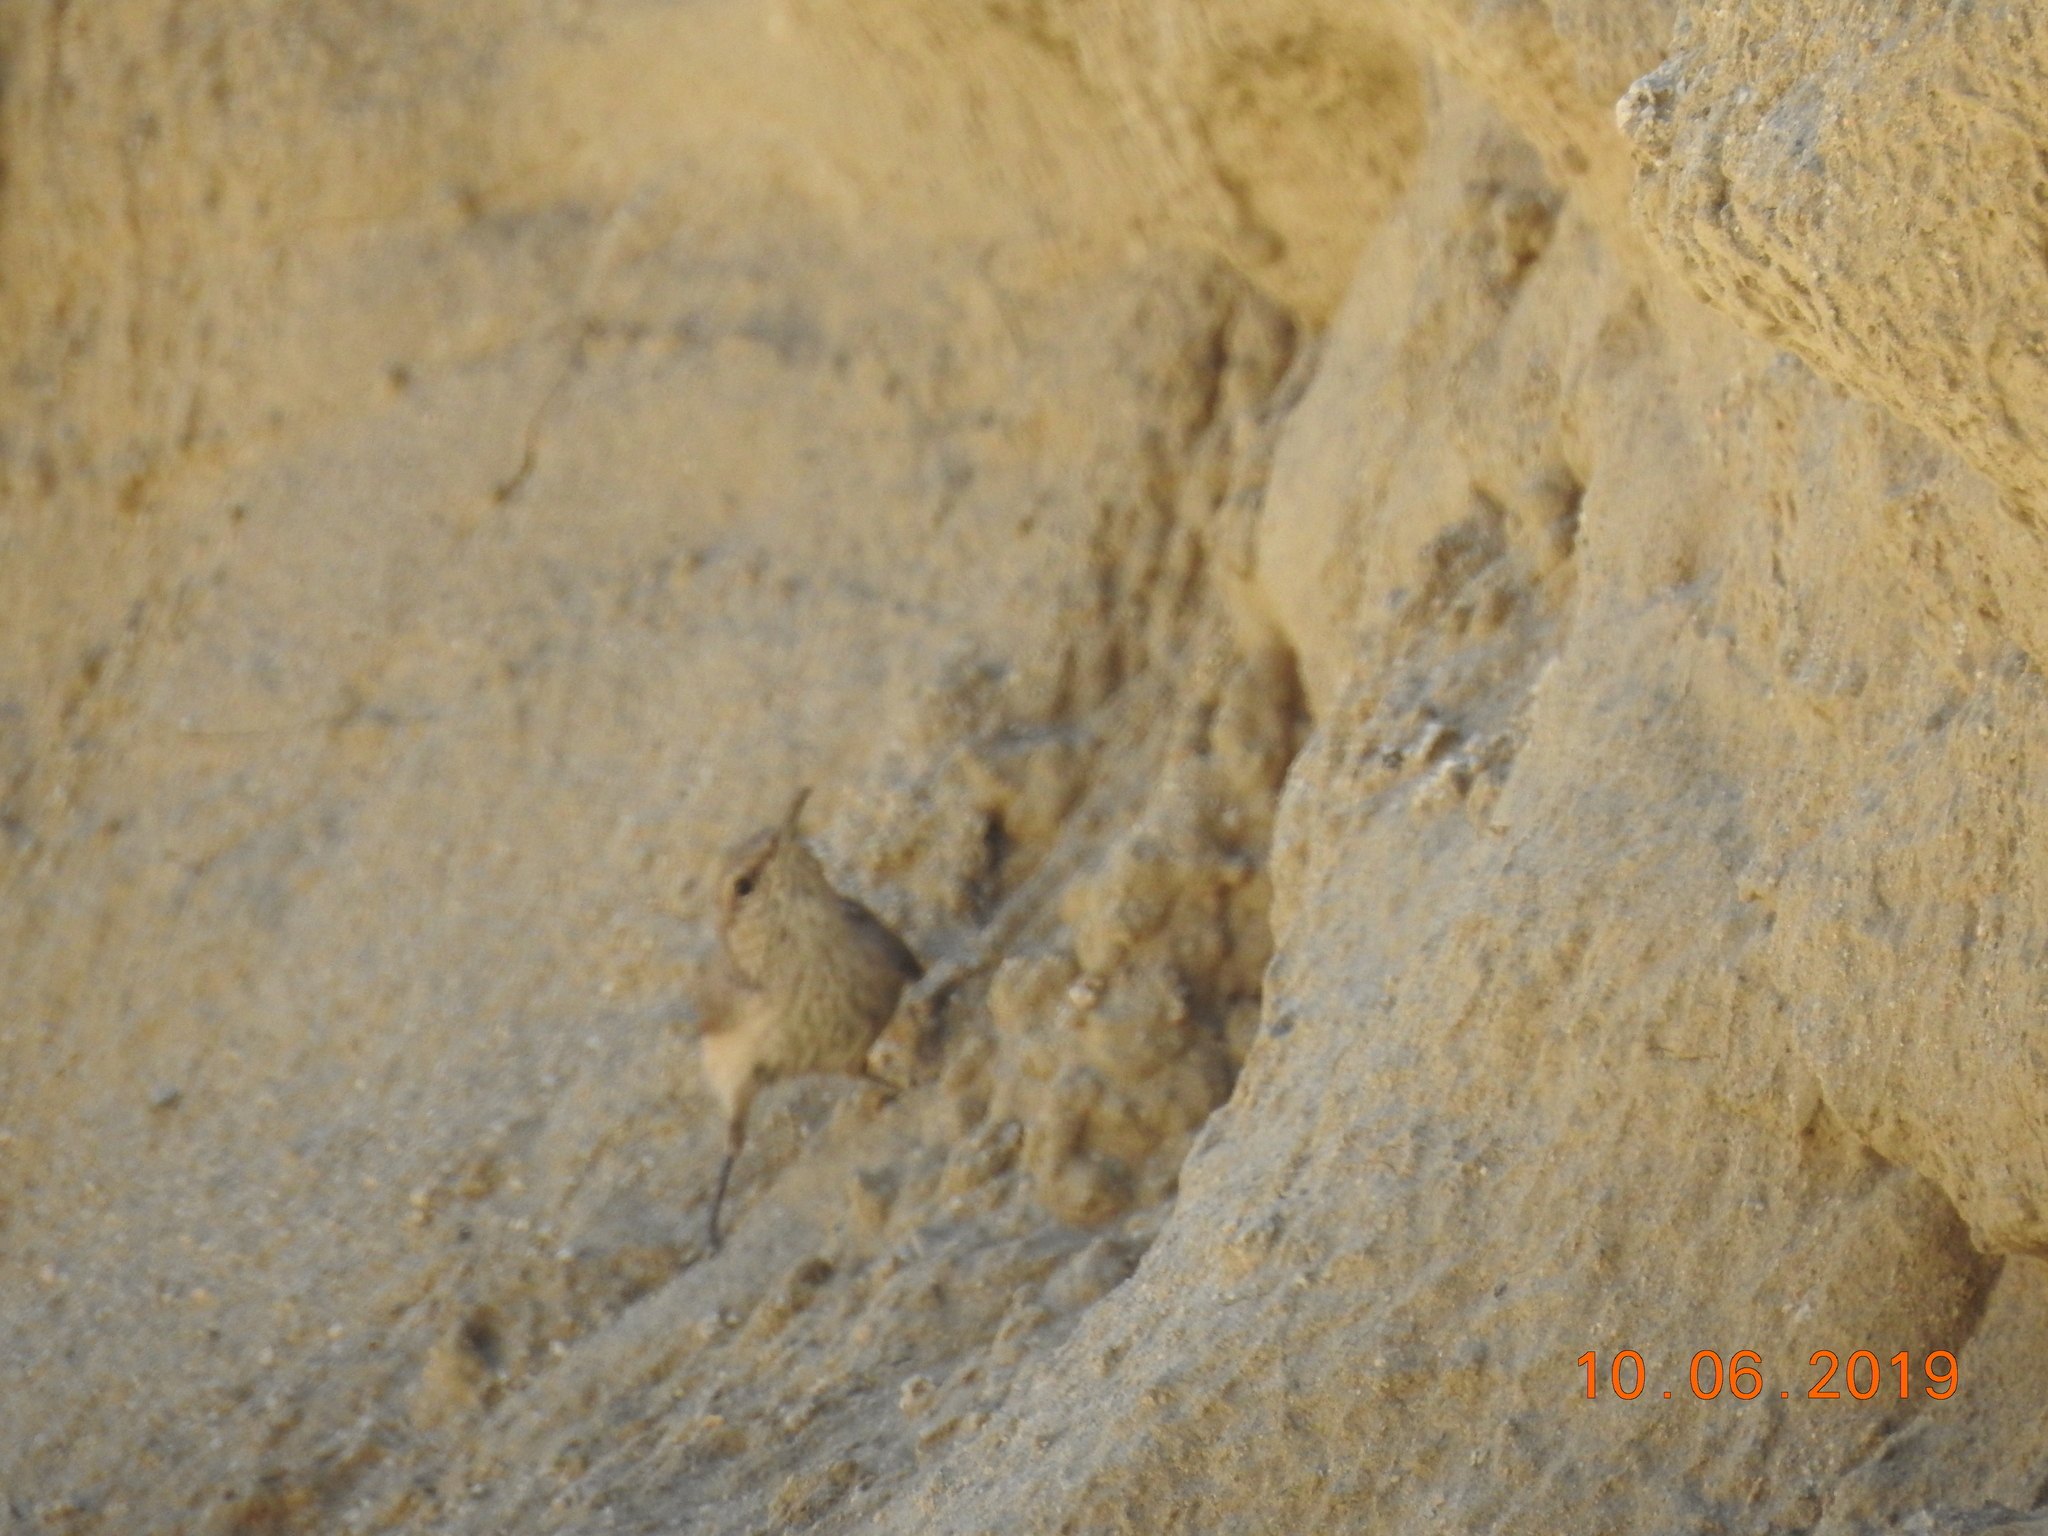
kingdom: Animalia
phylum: Chordata
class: Aves
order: Passeriformes
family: Troglodytidae
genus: Salpinctes
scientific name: Salpinctes obsoletus
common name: Rock wren
